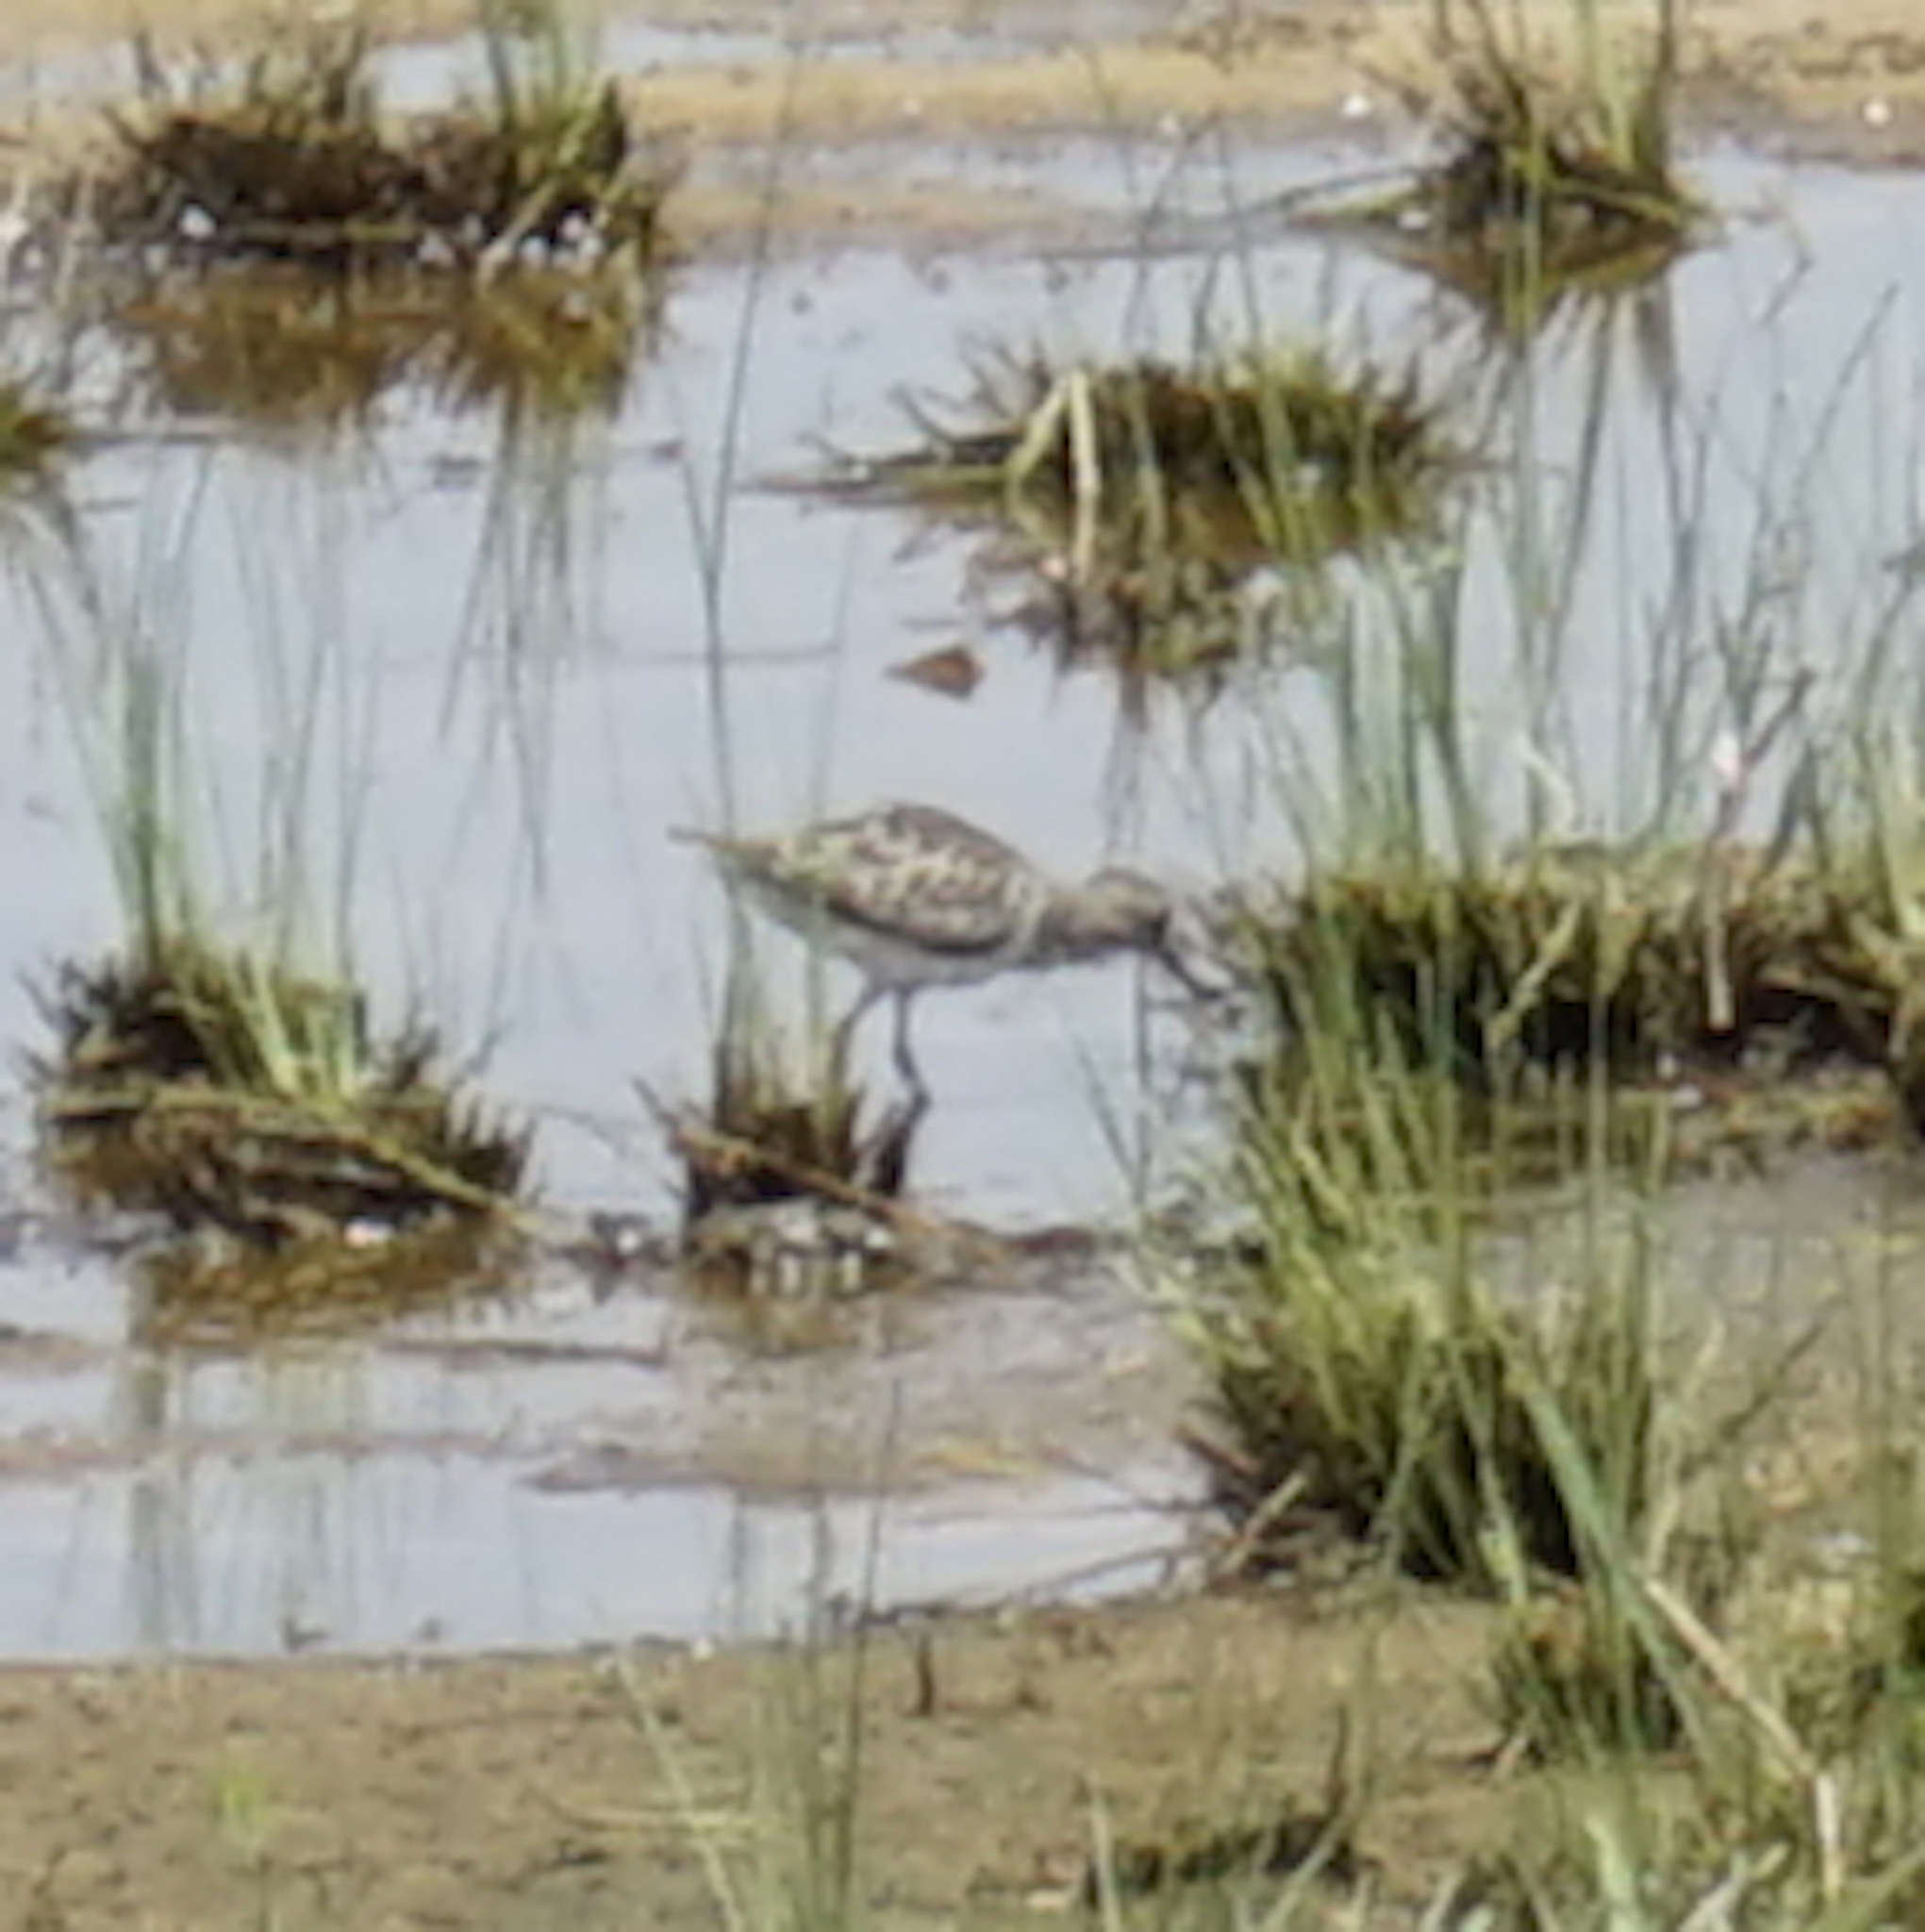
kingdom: Animalia
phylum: Chordata
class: Aves
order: Charadriiformes
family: Scolopacidae
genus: Calidris
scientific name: Calidris temminckii
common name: Temminck's stint
